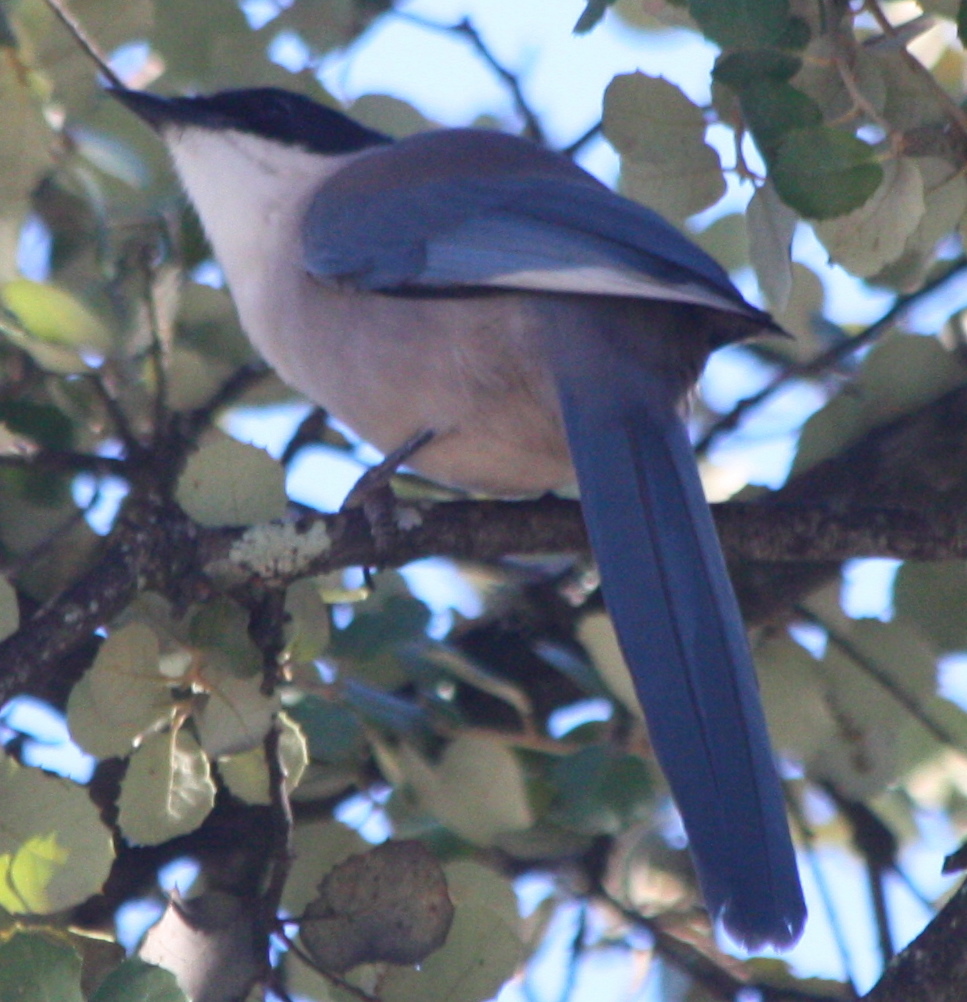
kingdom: Animalia
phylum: Chordata
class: Aves
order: Passeriformes
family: Corvidae
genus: Cyanopica
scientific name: Cyanopica cooki
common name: Iberian magpie
